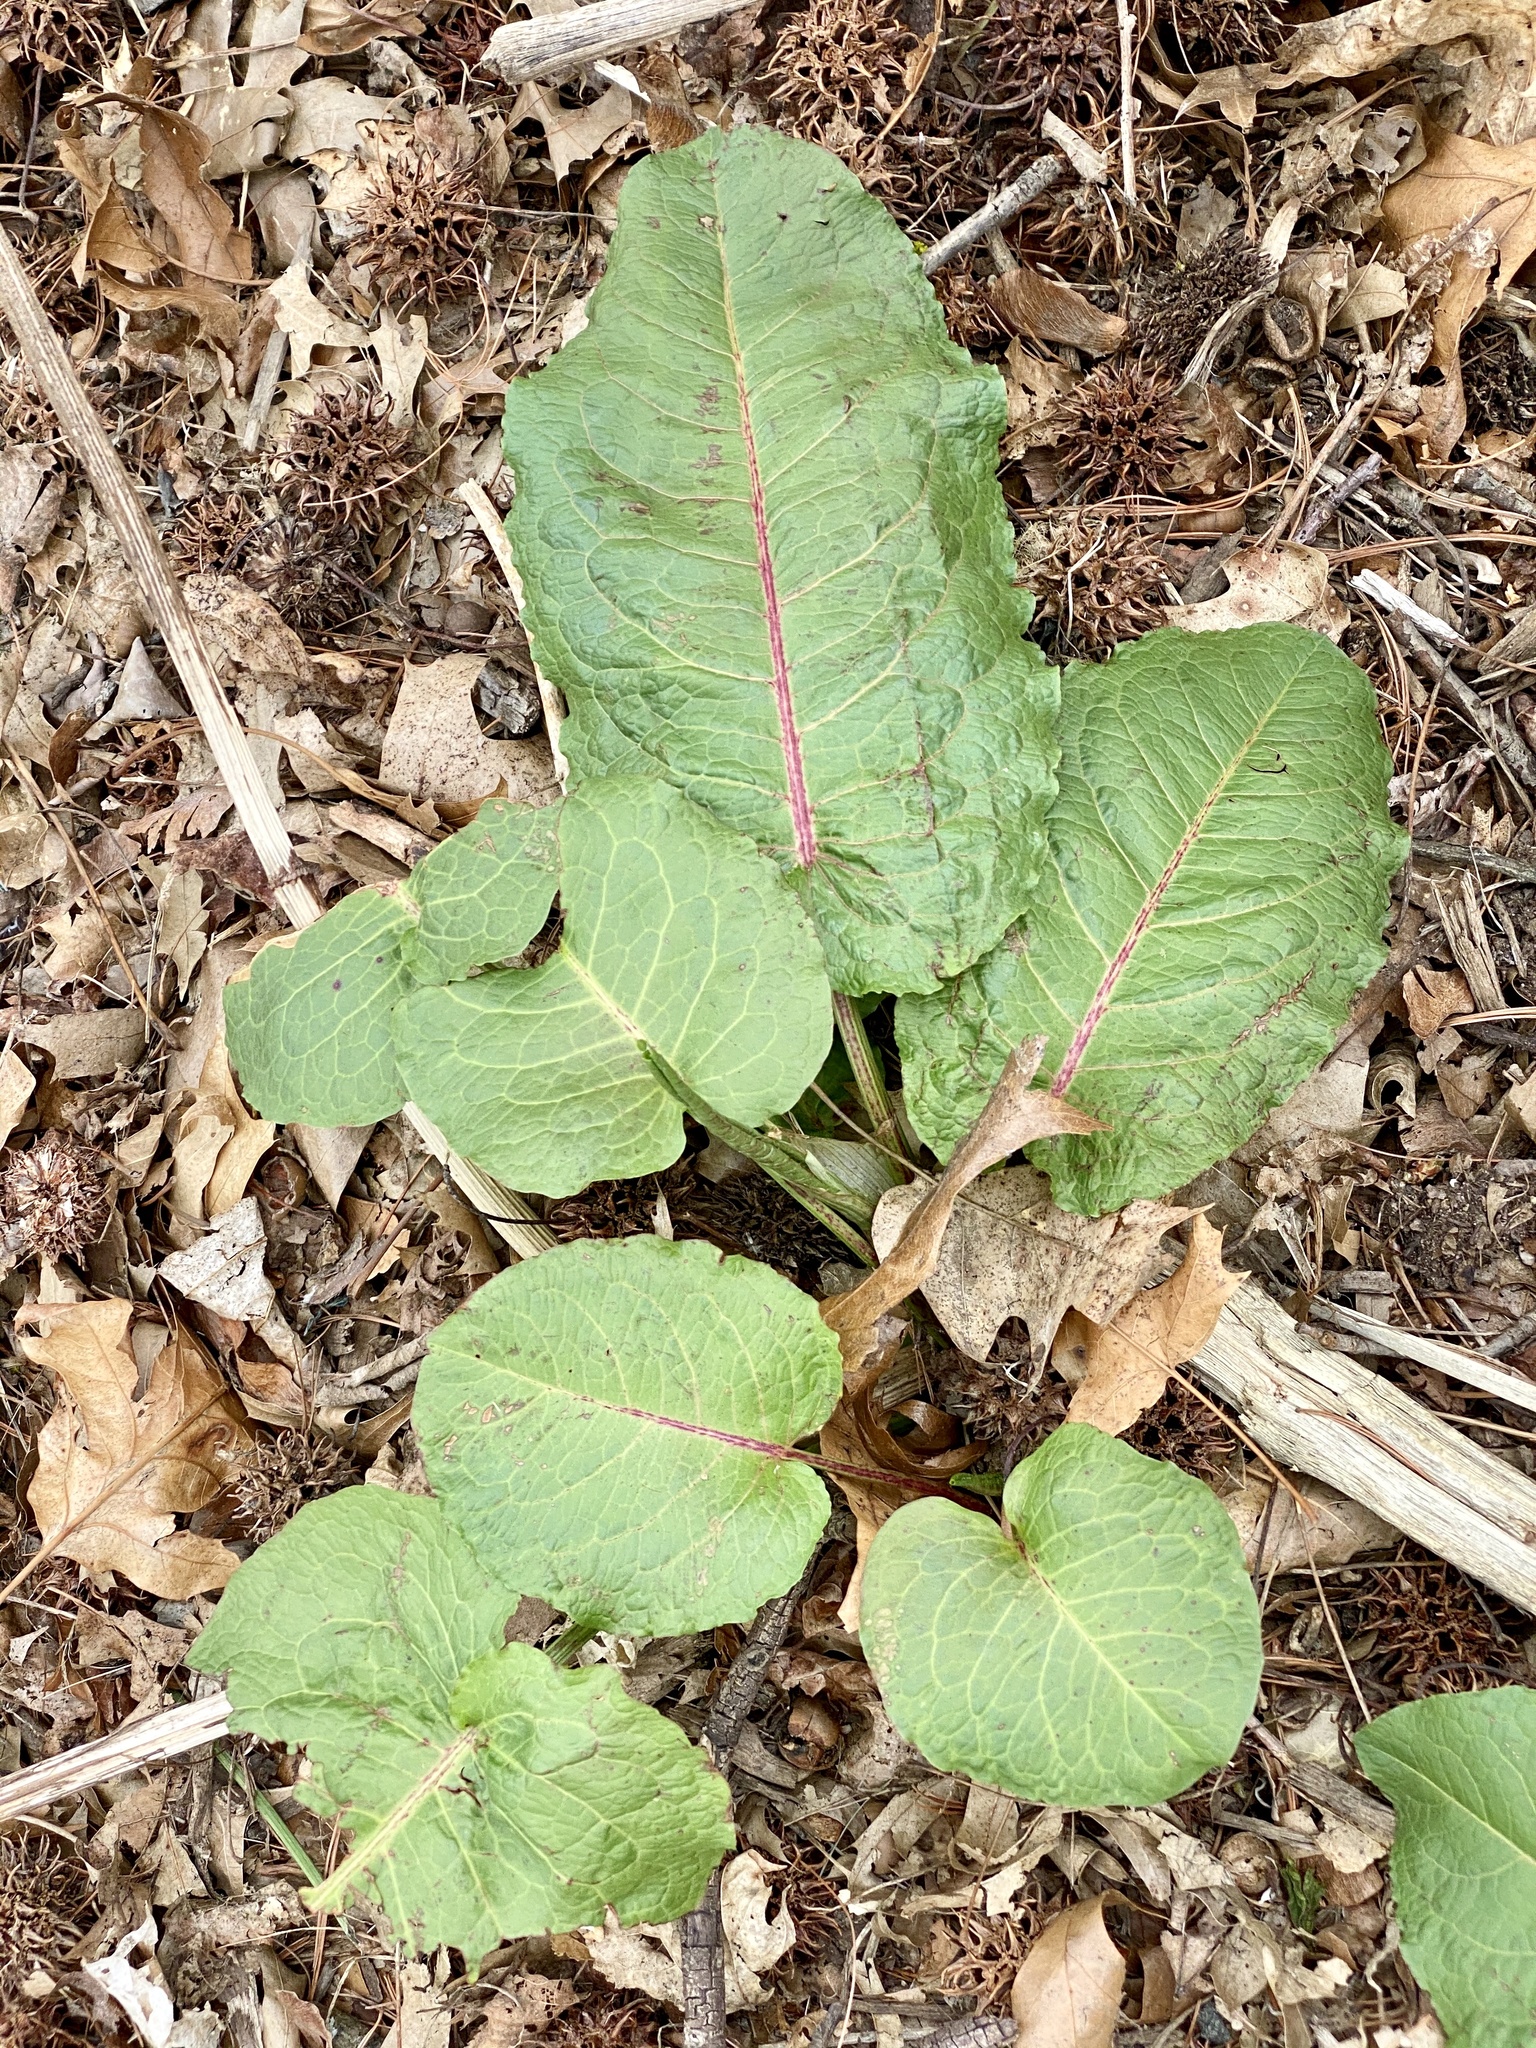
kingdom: Plantae
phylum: Tracheophyta
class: Magnoliopsida
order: Caryophyllales
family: Polygonaceae
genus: Rumex
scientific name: Rumex obtusifolius
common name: Bitter dock
